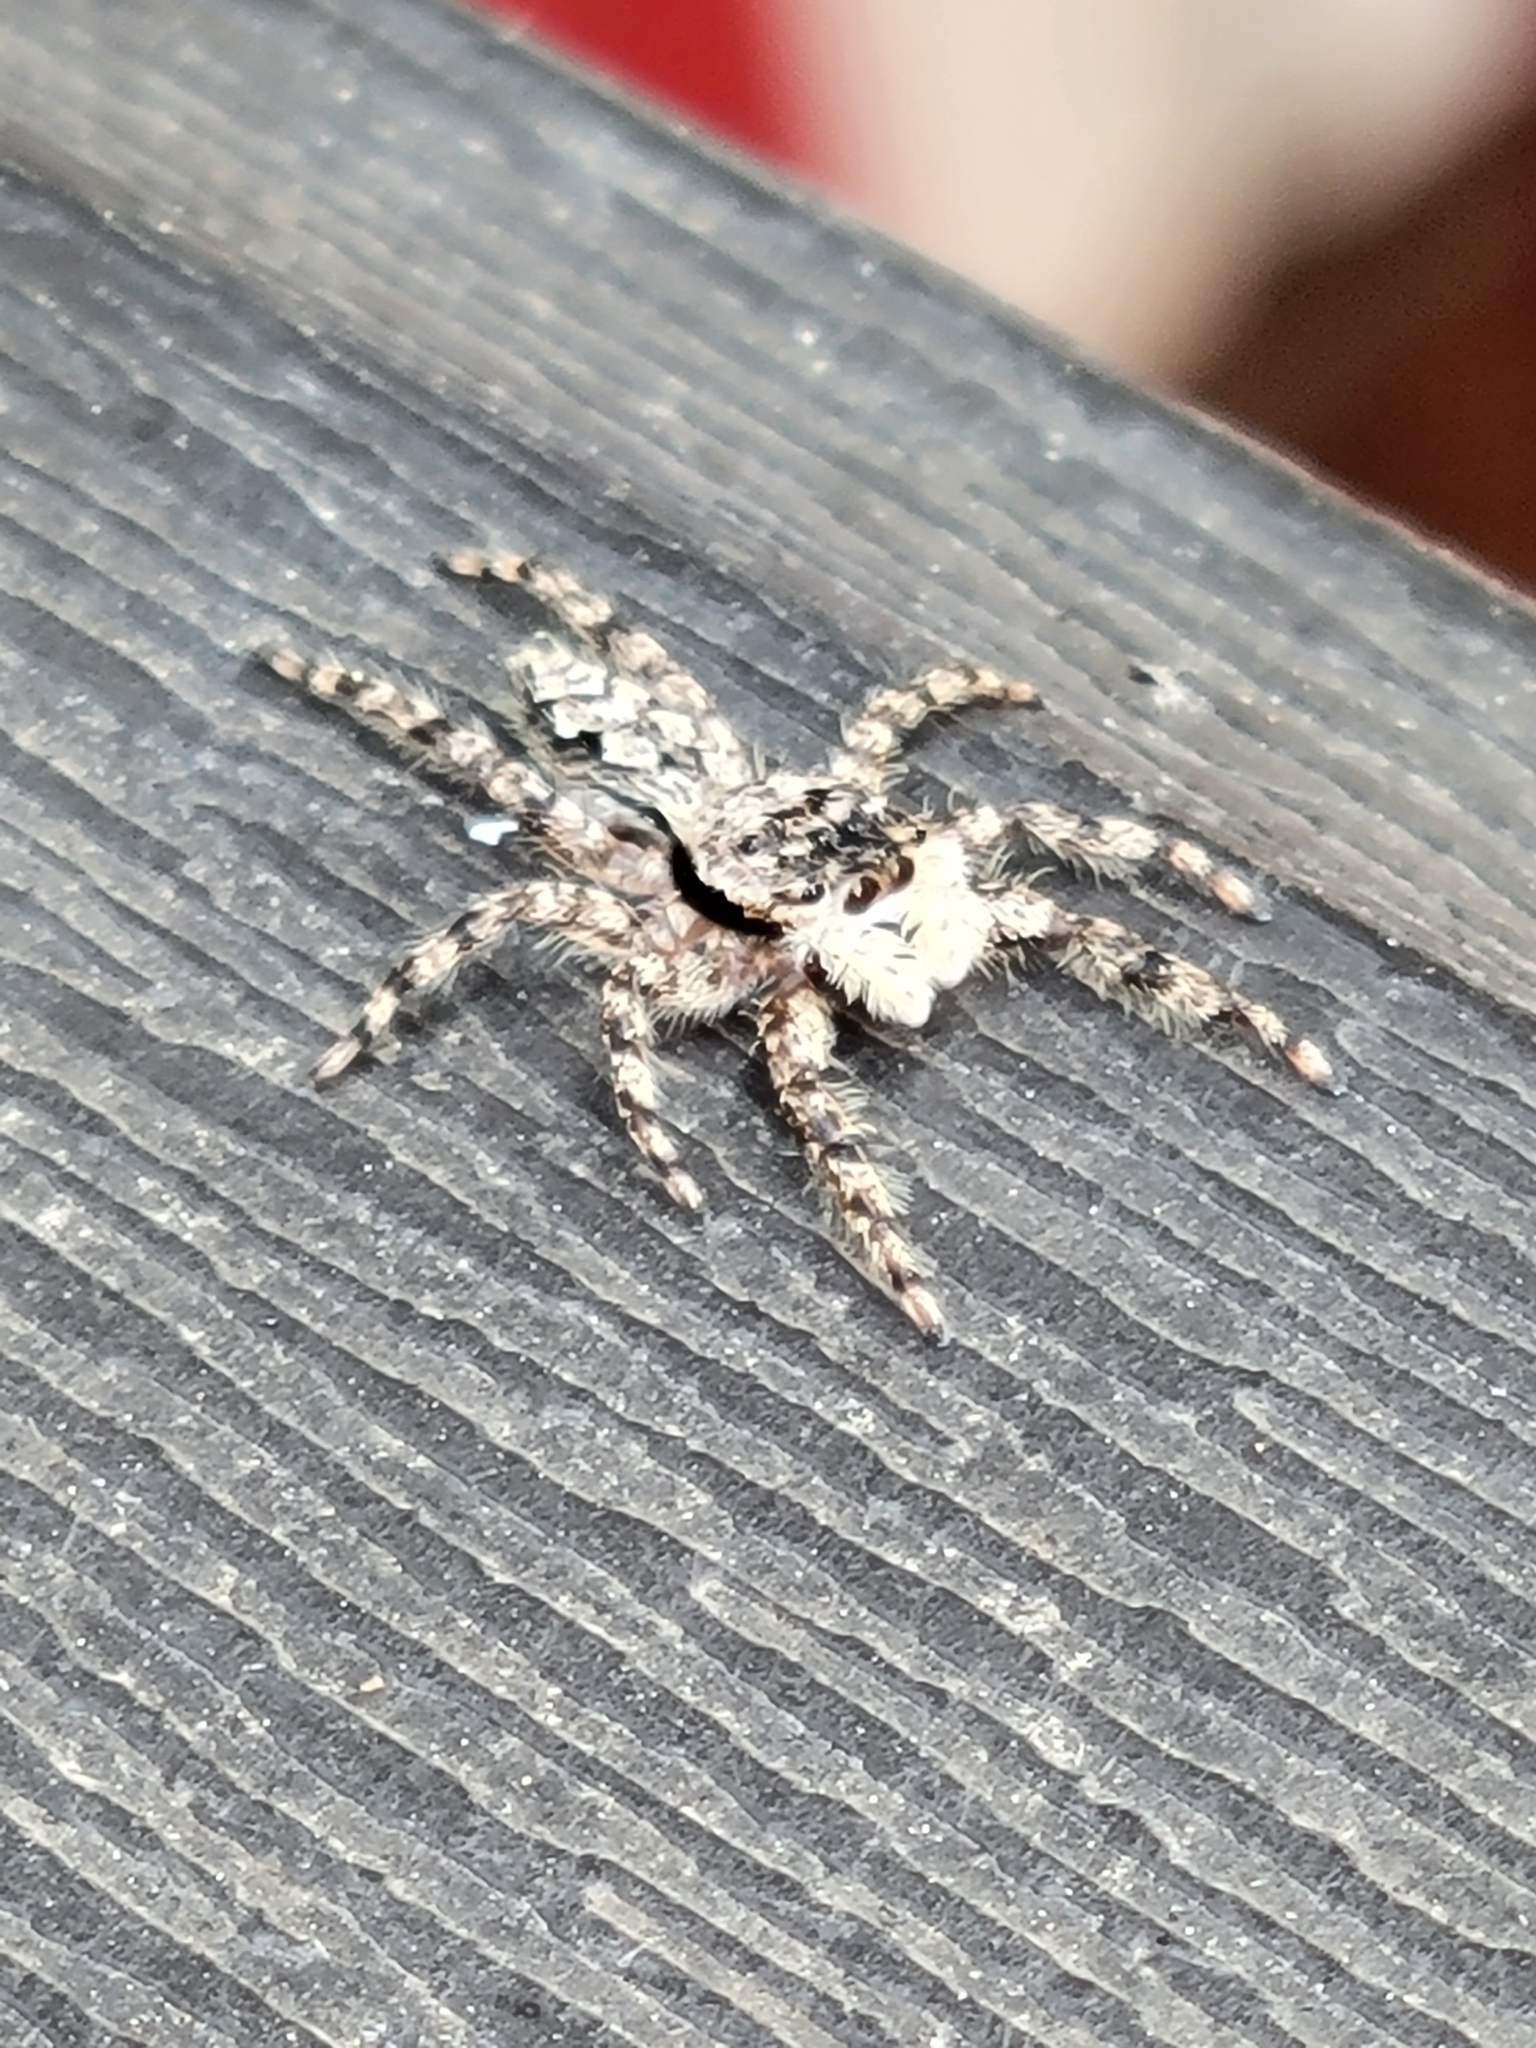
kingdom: Animalia
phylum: Arthropoda
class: Arachnida
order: Araneae
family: Salticidae
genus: Platycryptus
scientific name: Platycryptus undatus
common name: Tan jumping spider
